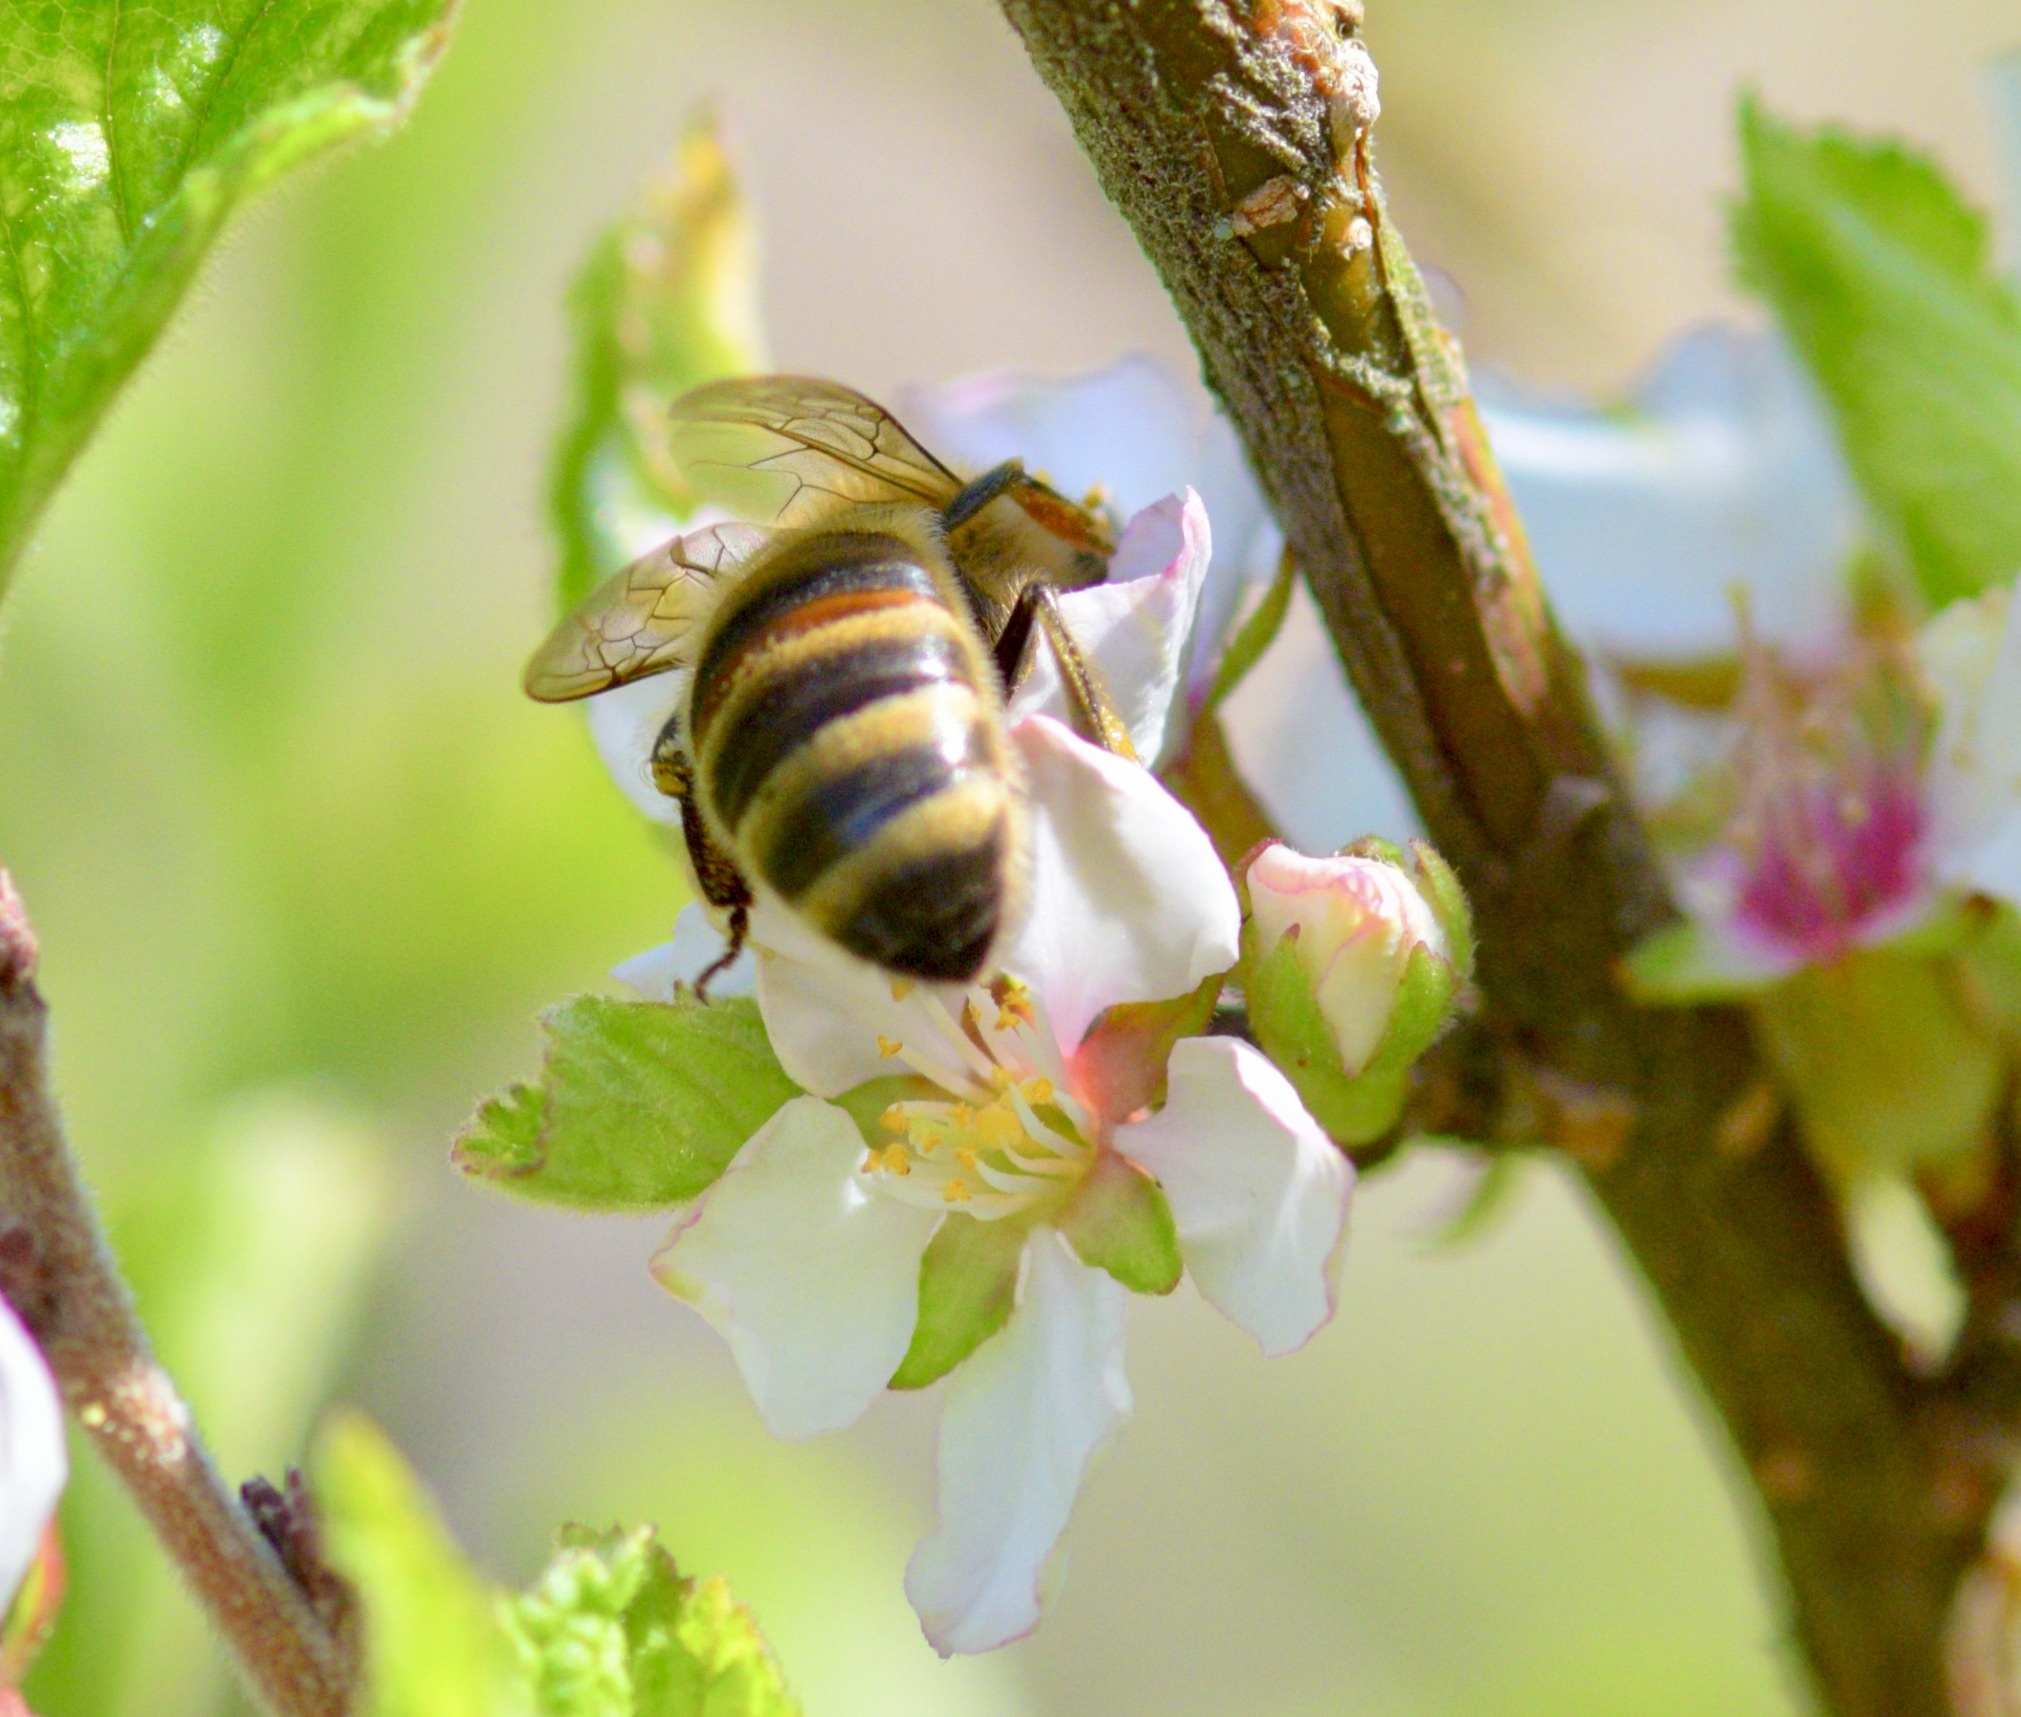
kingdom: Animalia
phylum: Arthropoda
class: Insecta
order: Hymenoptera
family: Apidae
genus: Apis
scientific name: Apis mellifera
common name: Honey bee
